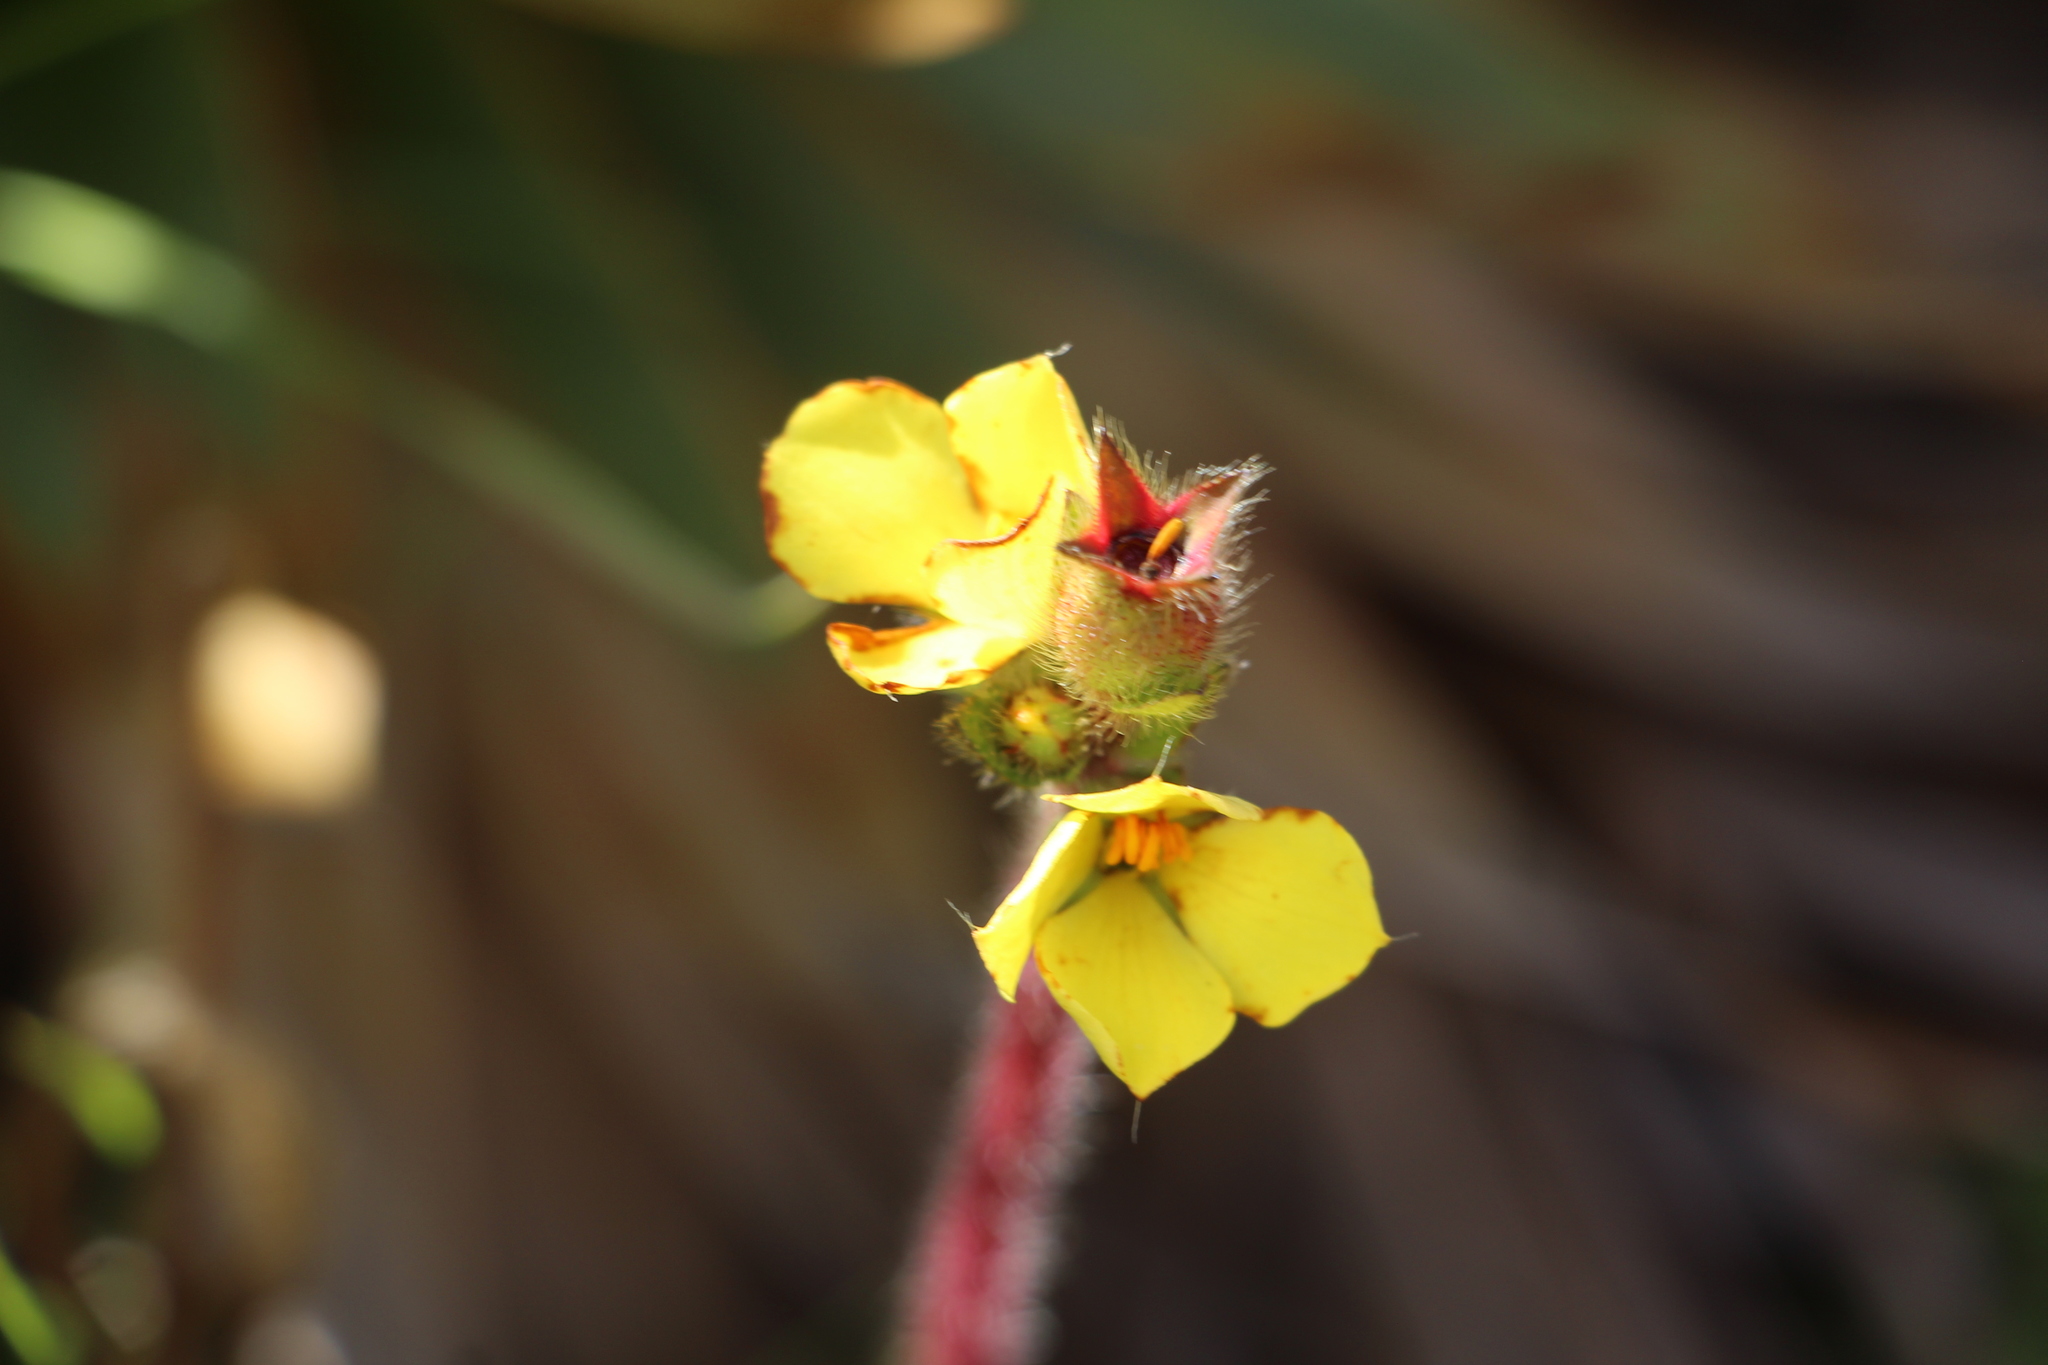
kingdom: Plantae
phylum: Tracheophyta
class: Magnoliopsida
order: Myrtales
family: Melastomataceae
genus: Castratella
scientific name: Castratella piloselloides
